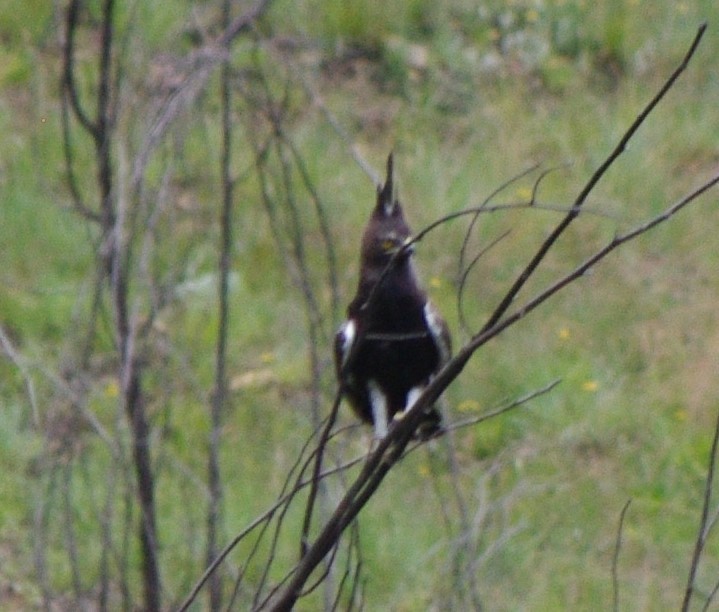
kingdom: Animalia
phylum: Chordata
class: Aves
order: Accipitriformes
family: Accipitridae
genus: Lophaetus
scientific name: Lophaetus occipitalis
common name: Long-crested eagle
